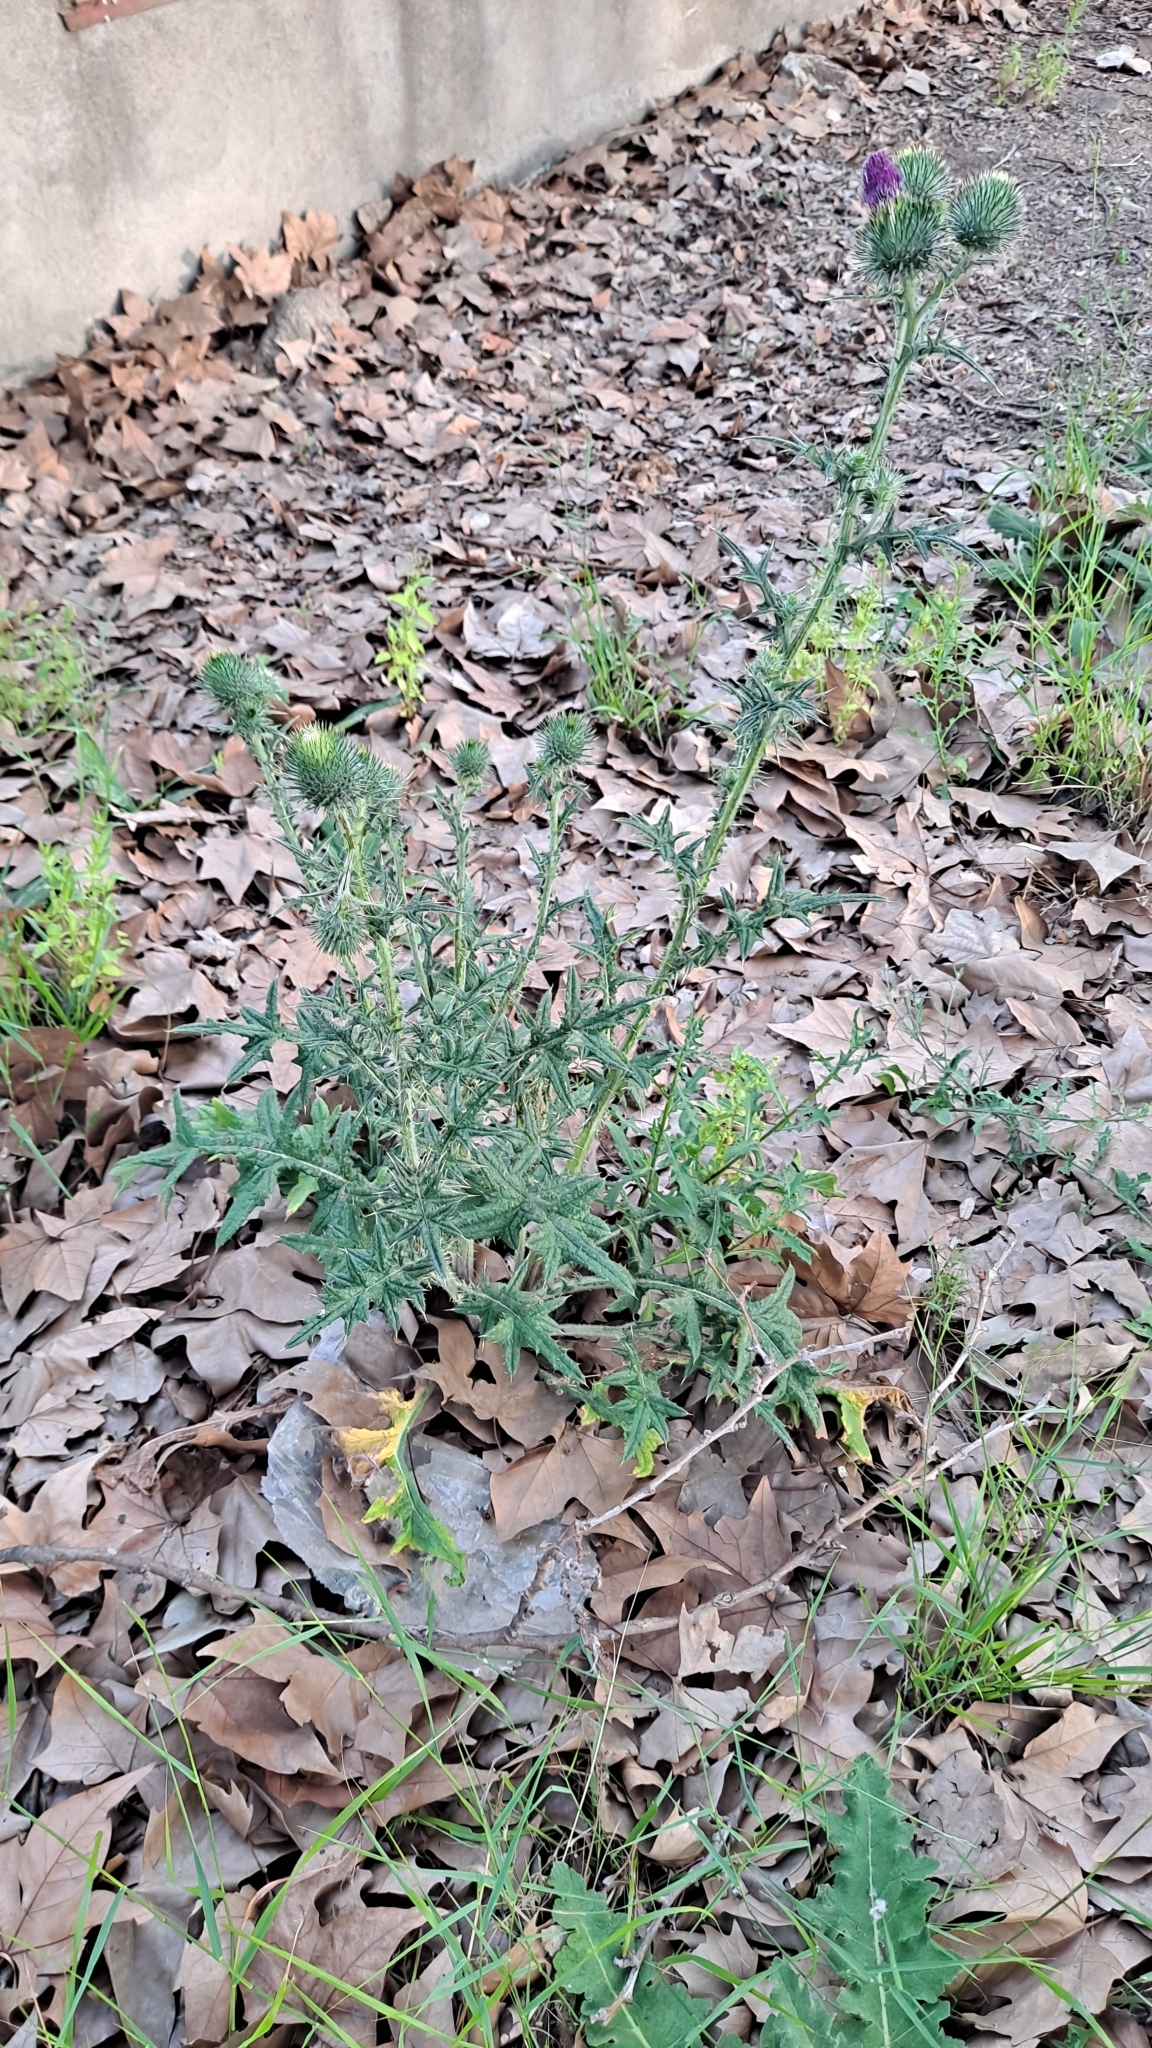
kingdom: Plantae
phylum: Tracheophyta
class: Magnoliopsida
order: Asterales
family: Asteraceae
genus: Cirsium
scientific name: Cirsium vulgare
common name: Bull thistle
